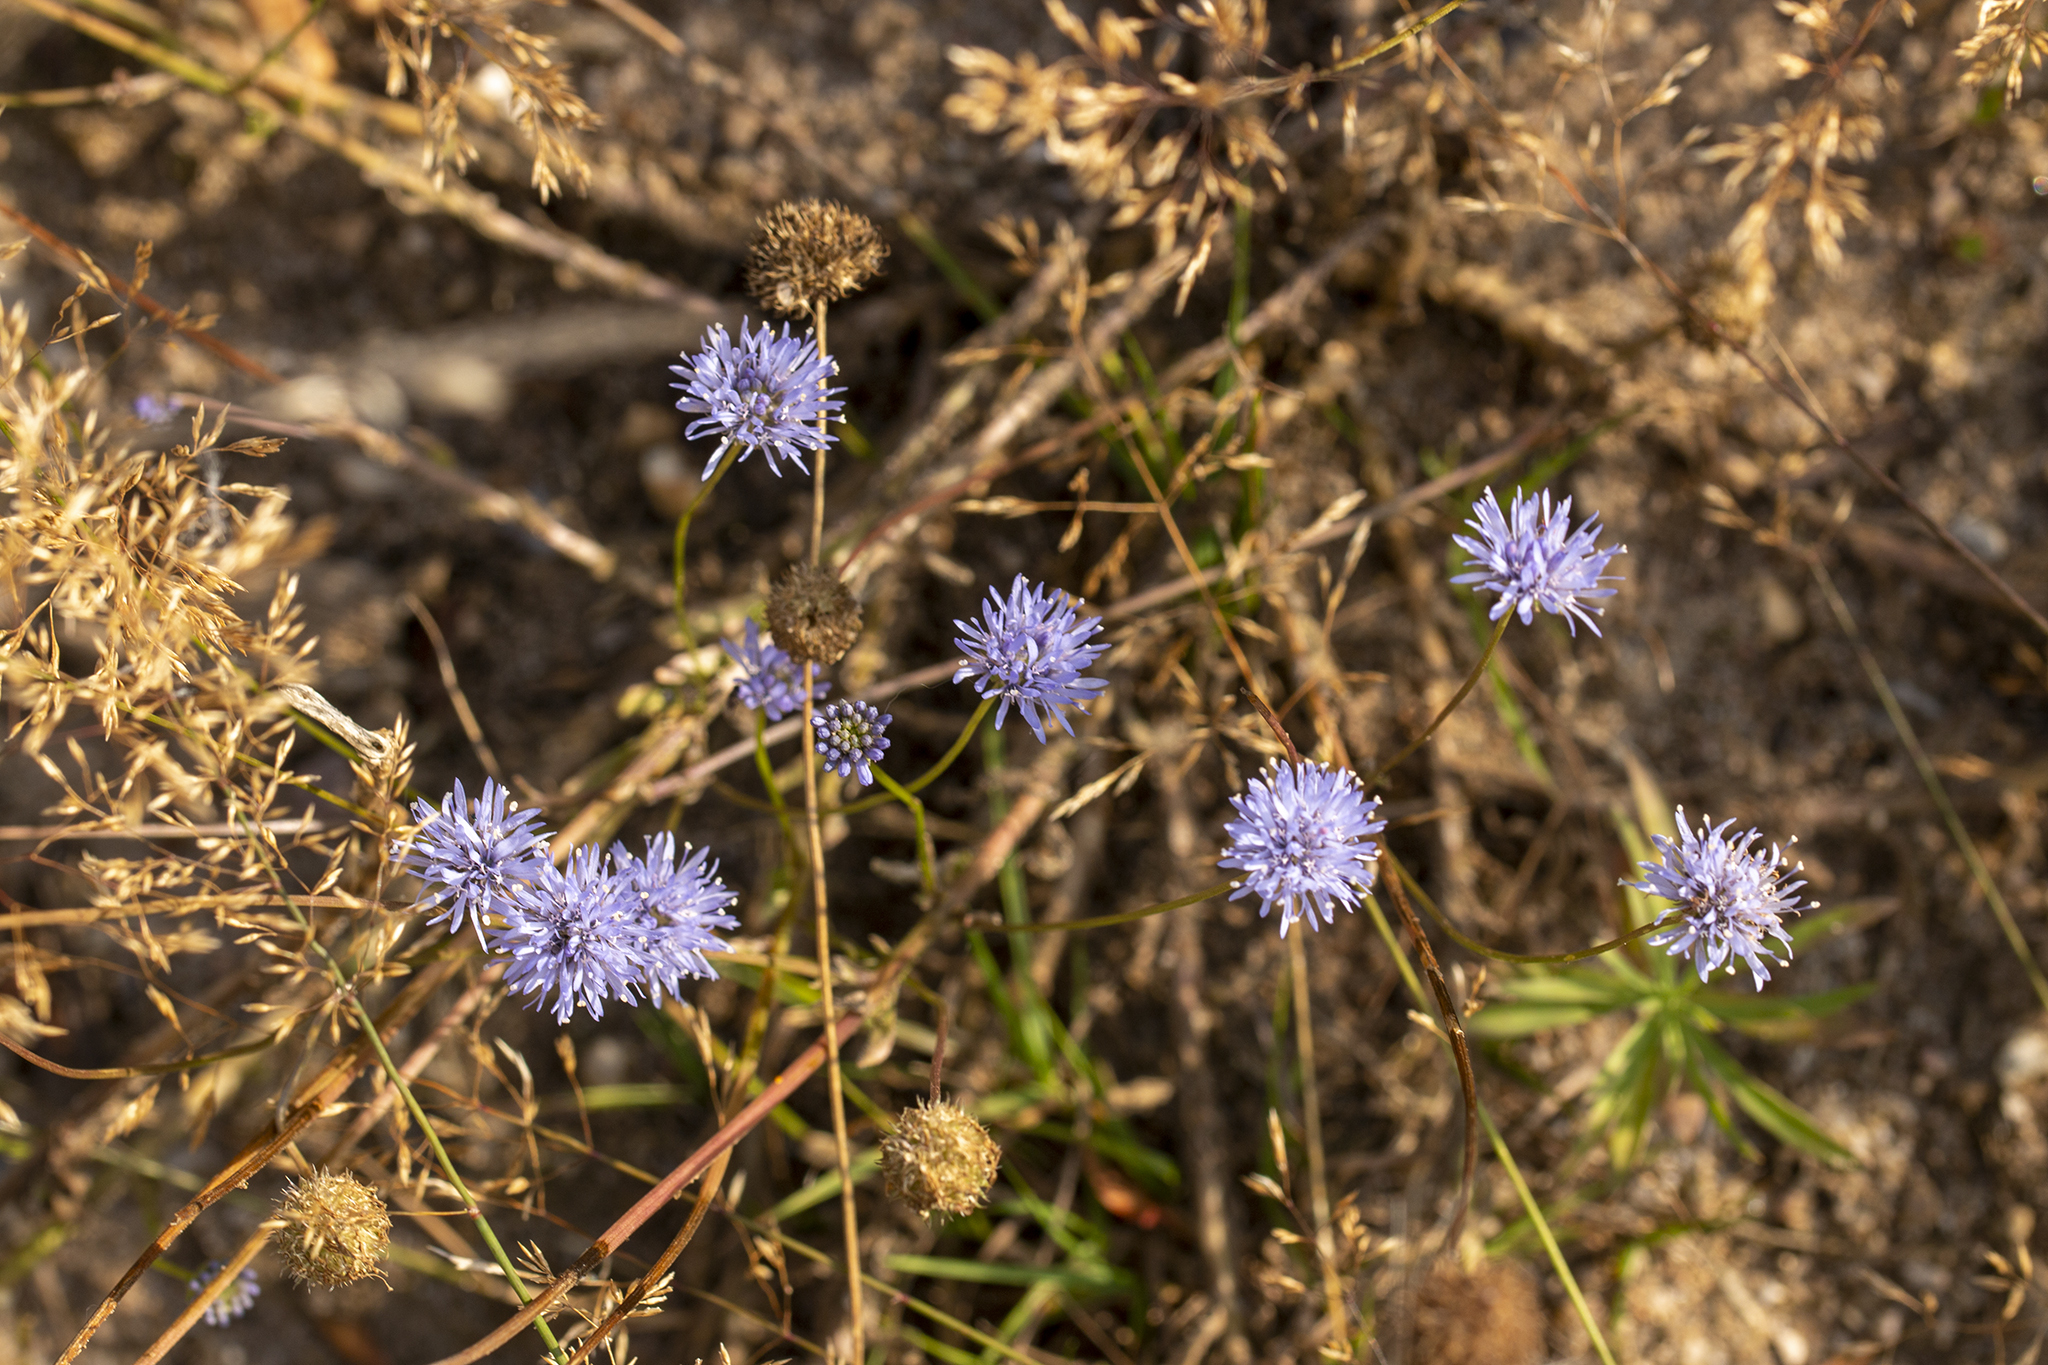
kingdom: Plantae
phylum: Tracheophyta
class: Magnoliopsida
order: Asterales
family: Campanulaceae
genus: Jasione
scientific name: Jasione montana
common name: Sheep's-bit
